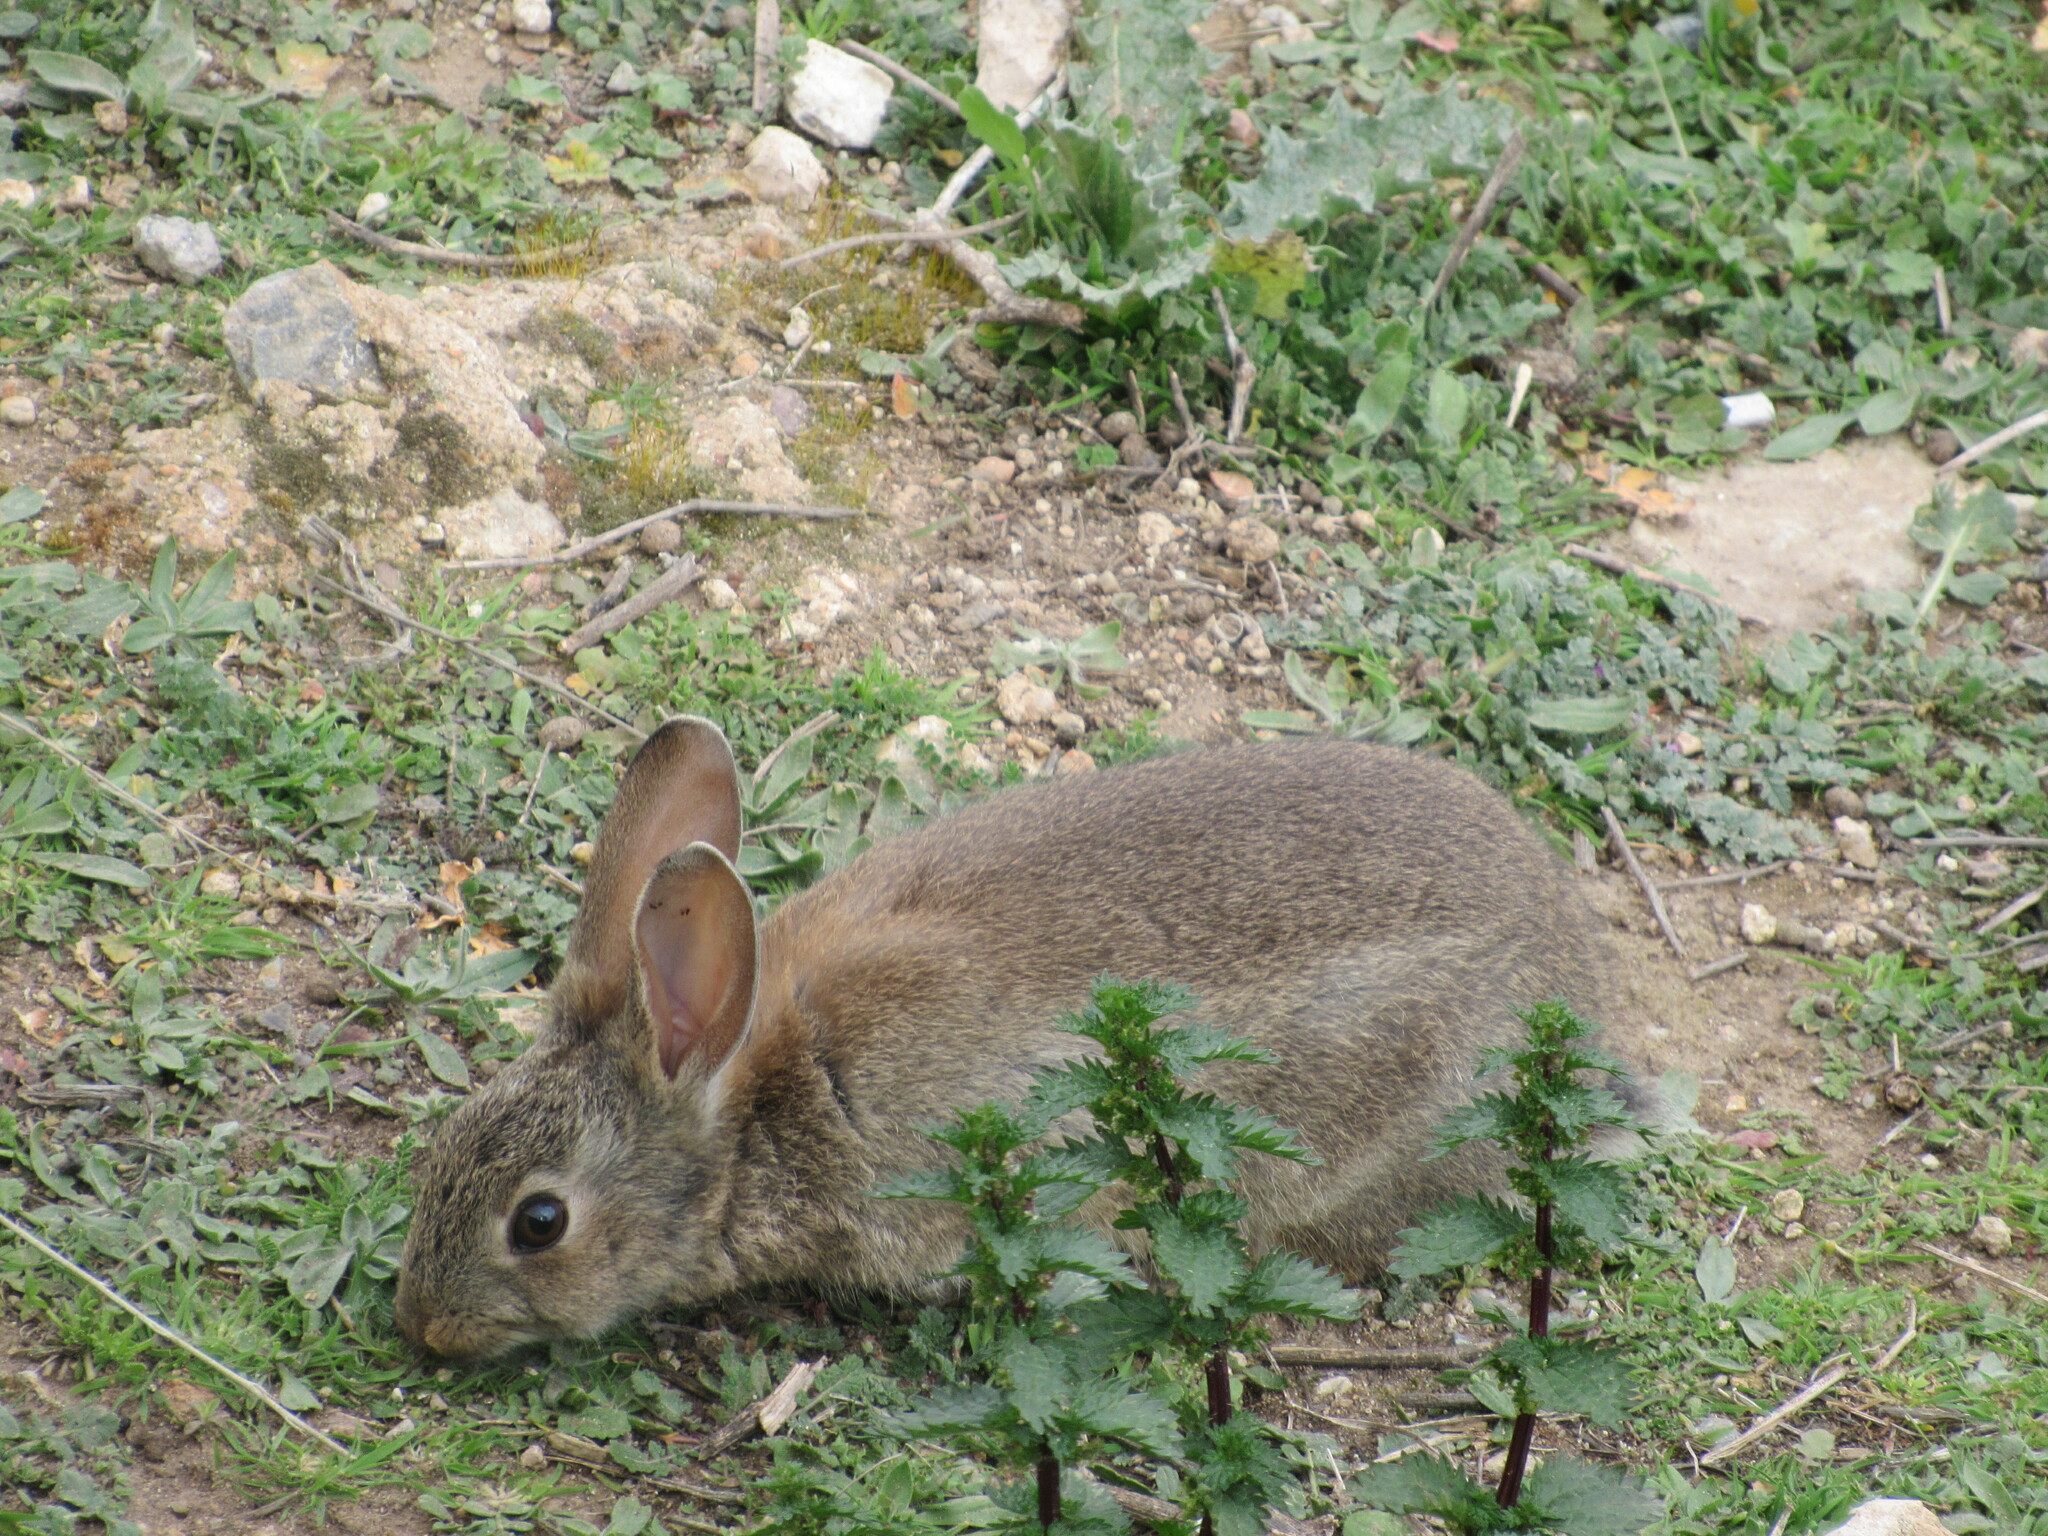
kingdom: Animalia
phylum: Chordata
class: Mammalia
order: Lagomorpha
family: Leporidae
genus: Oryctolagus
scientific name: Oryctolagus cuniculus
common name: European rabbit
